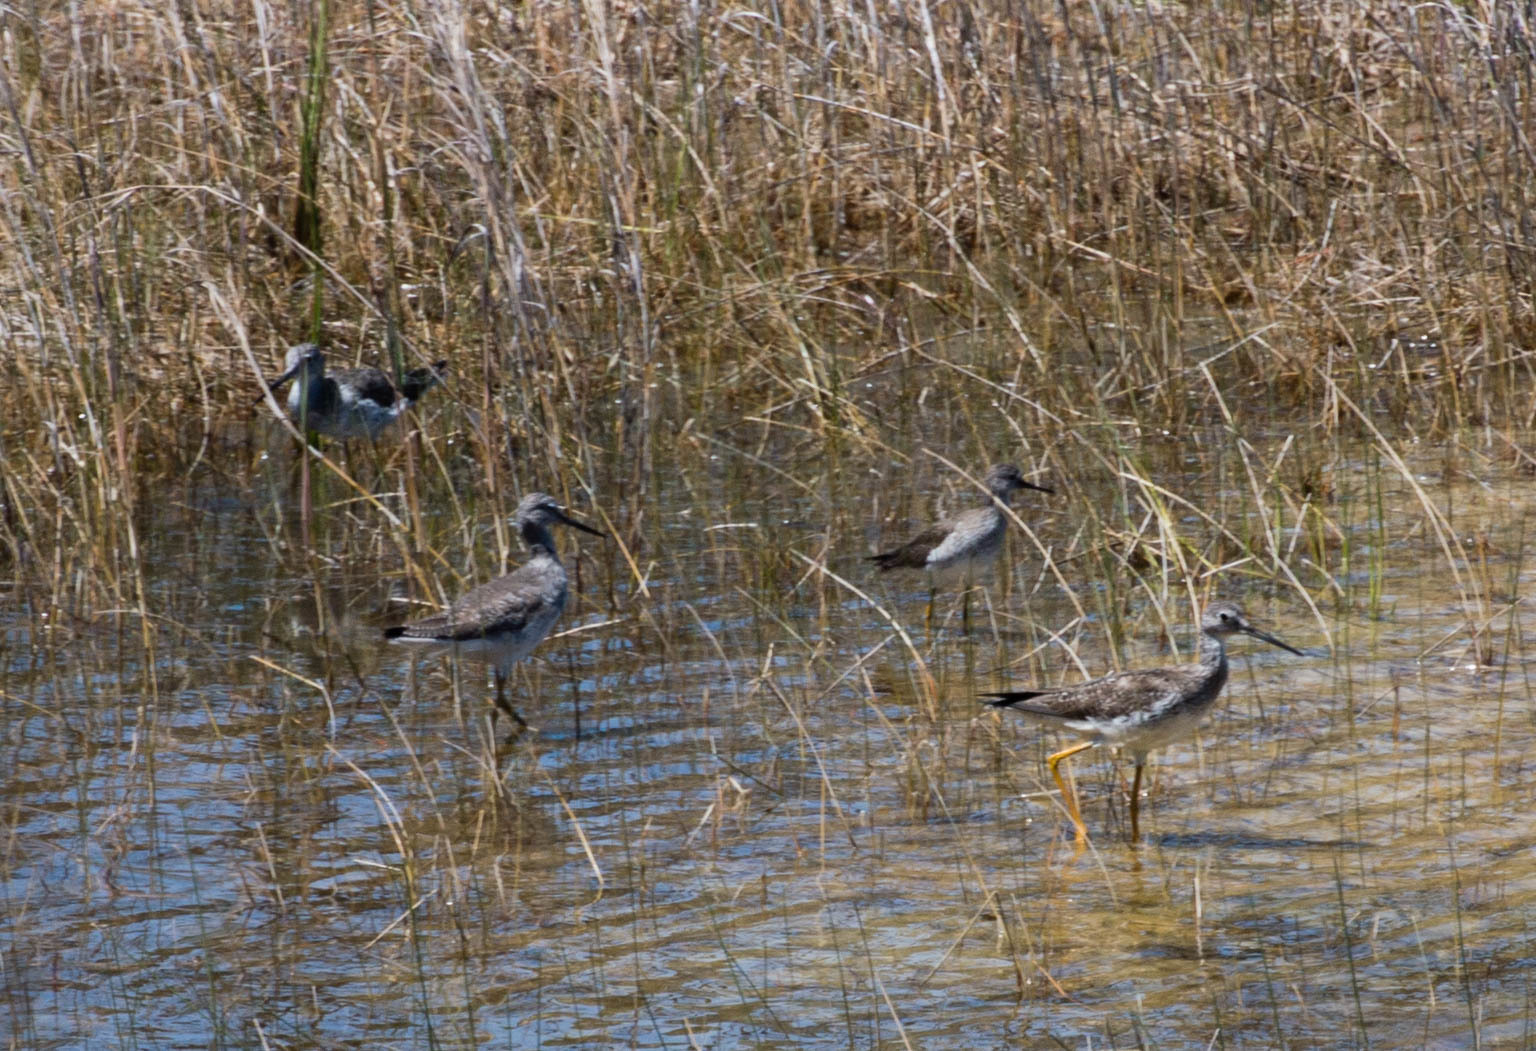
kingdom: Animalia
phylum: Chordata
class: Aves
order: Charadriiformes
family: Scolopacidae
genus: Tringa
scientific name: Tringa melanoleuca
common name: Greater yellowlegs
